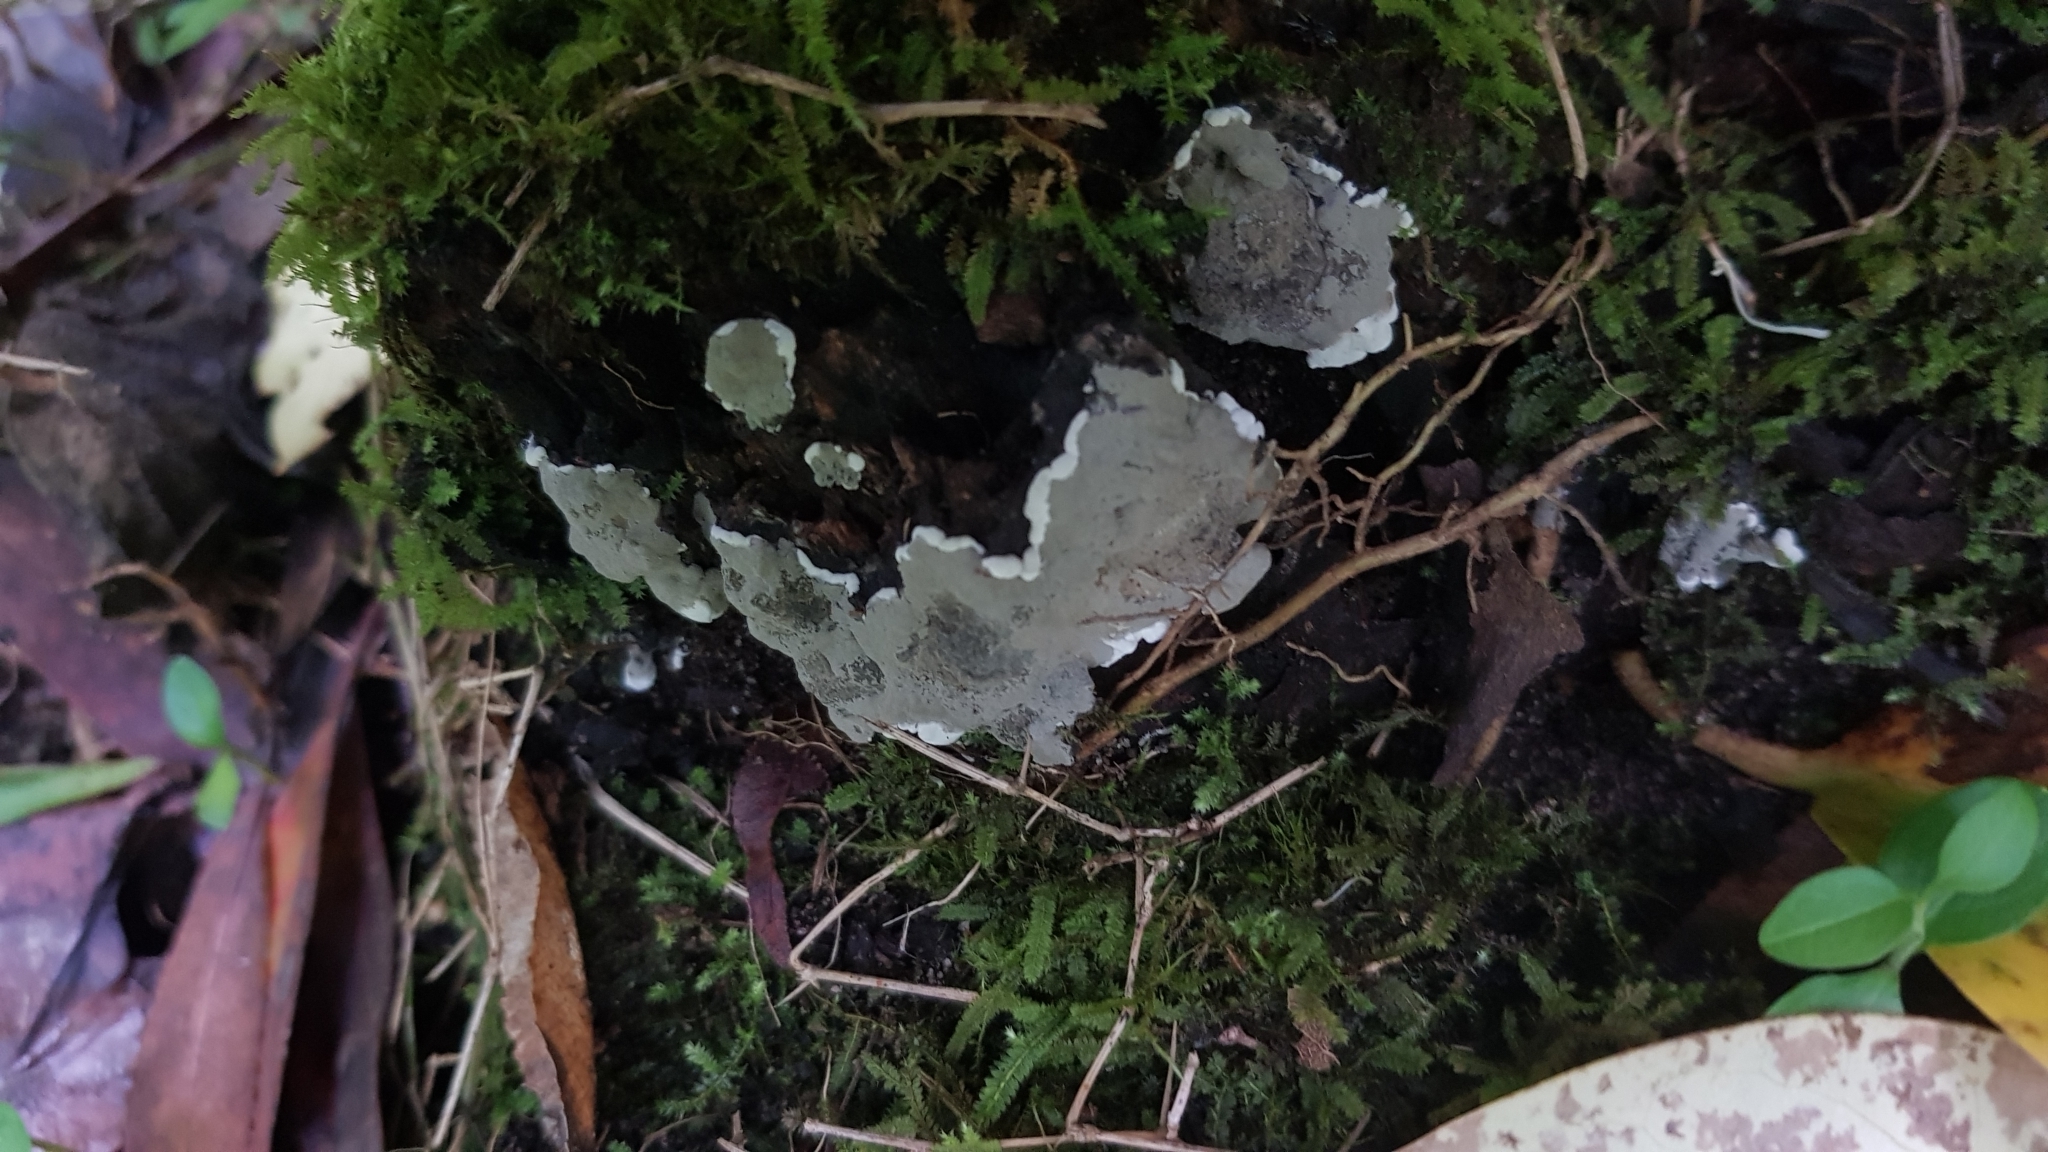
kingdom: Fungi
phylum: Ascomycota
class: Sordariomycetes
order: Xylariales
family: Xylariaceae
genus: Kretzschmaria
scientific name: Kretzschmaria deusta
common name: Brittle cinder
